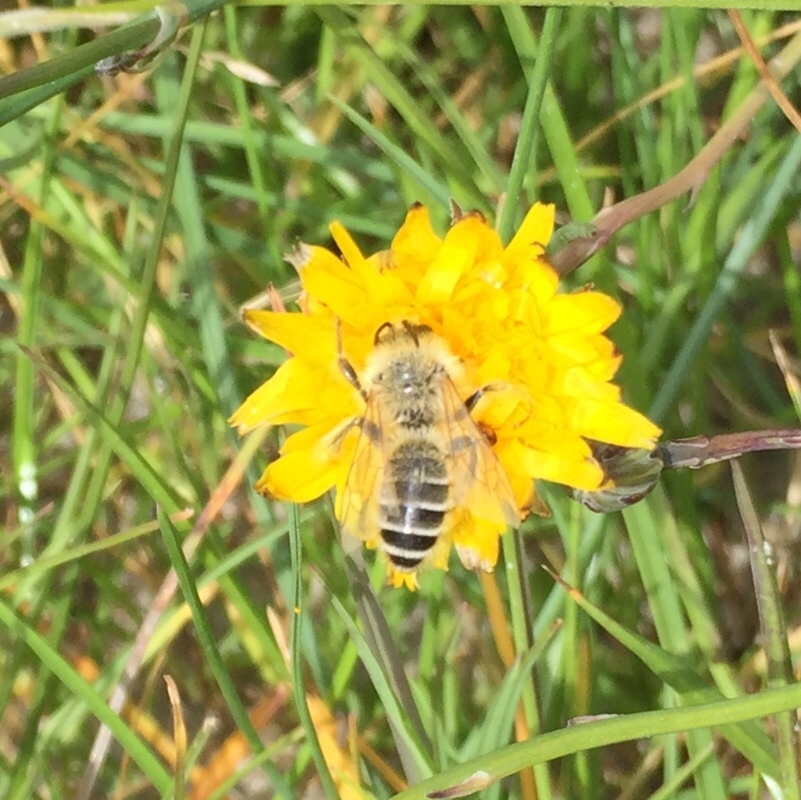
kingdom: Animalia
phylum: Arthropoda
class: Insecta
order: Hymenoptera
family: Melittidae
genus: Dasypoda
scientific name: Dasypoda hirtipes
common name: Pantaloon bee
